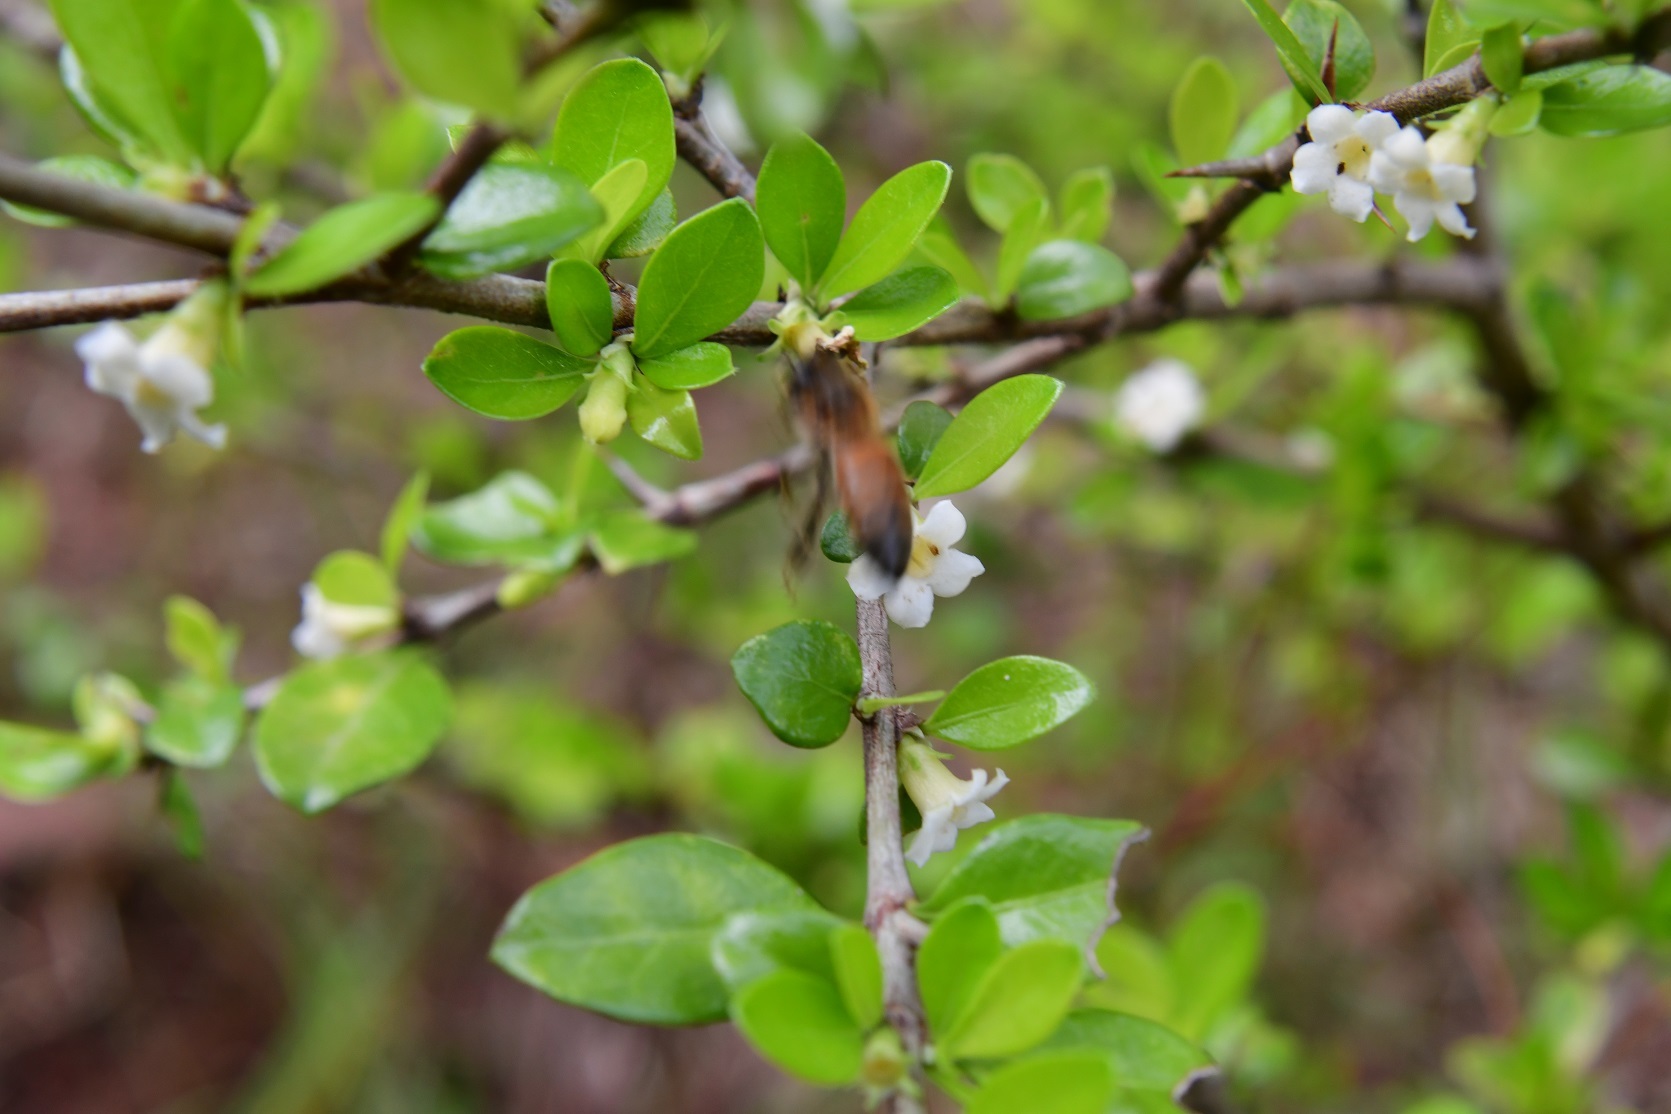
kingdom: Plantae
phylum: Tracheophyta
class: Magnoliopsida
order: Gentianales
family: Rubiaceae
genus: Randia
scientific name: Randia chiapensis
